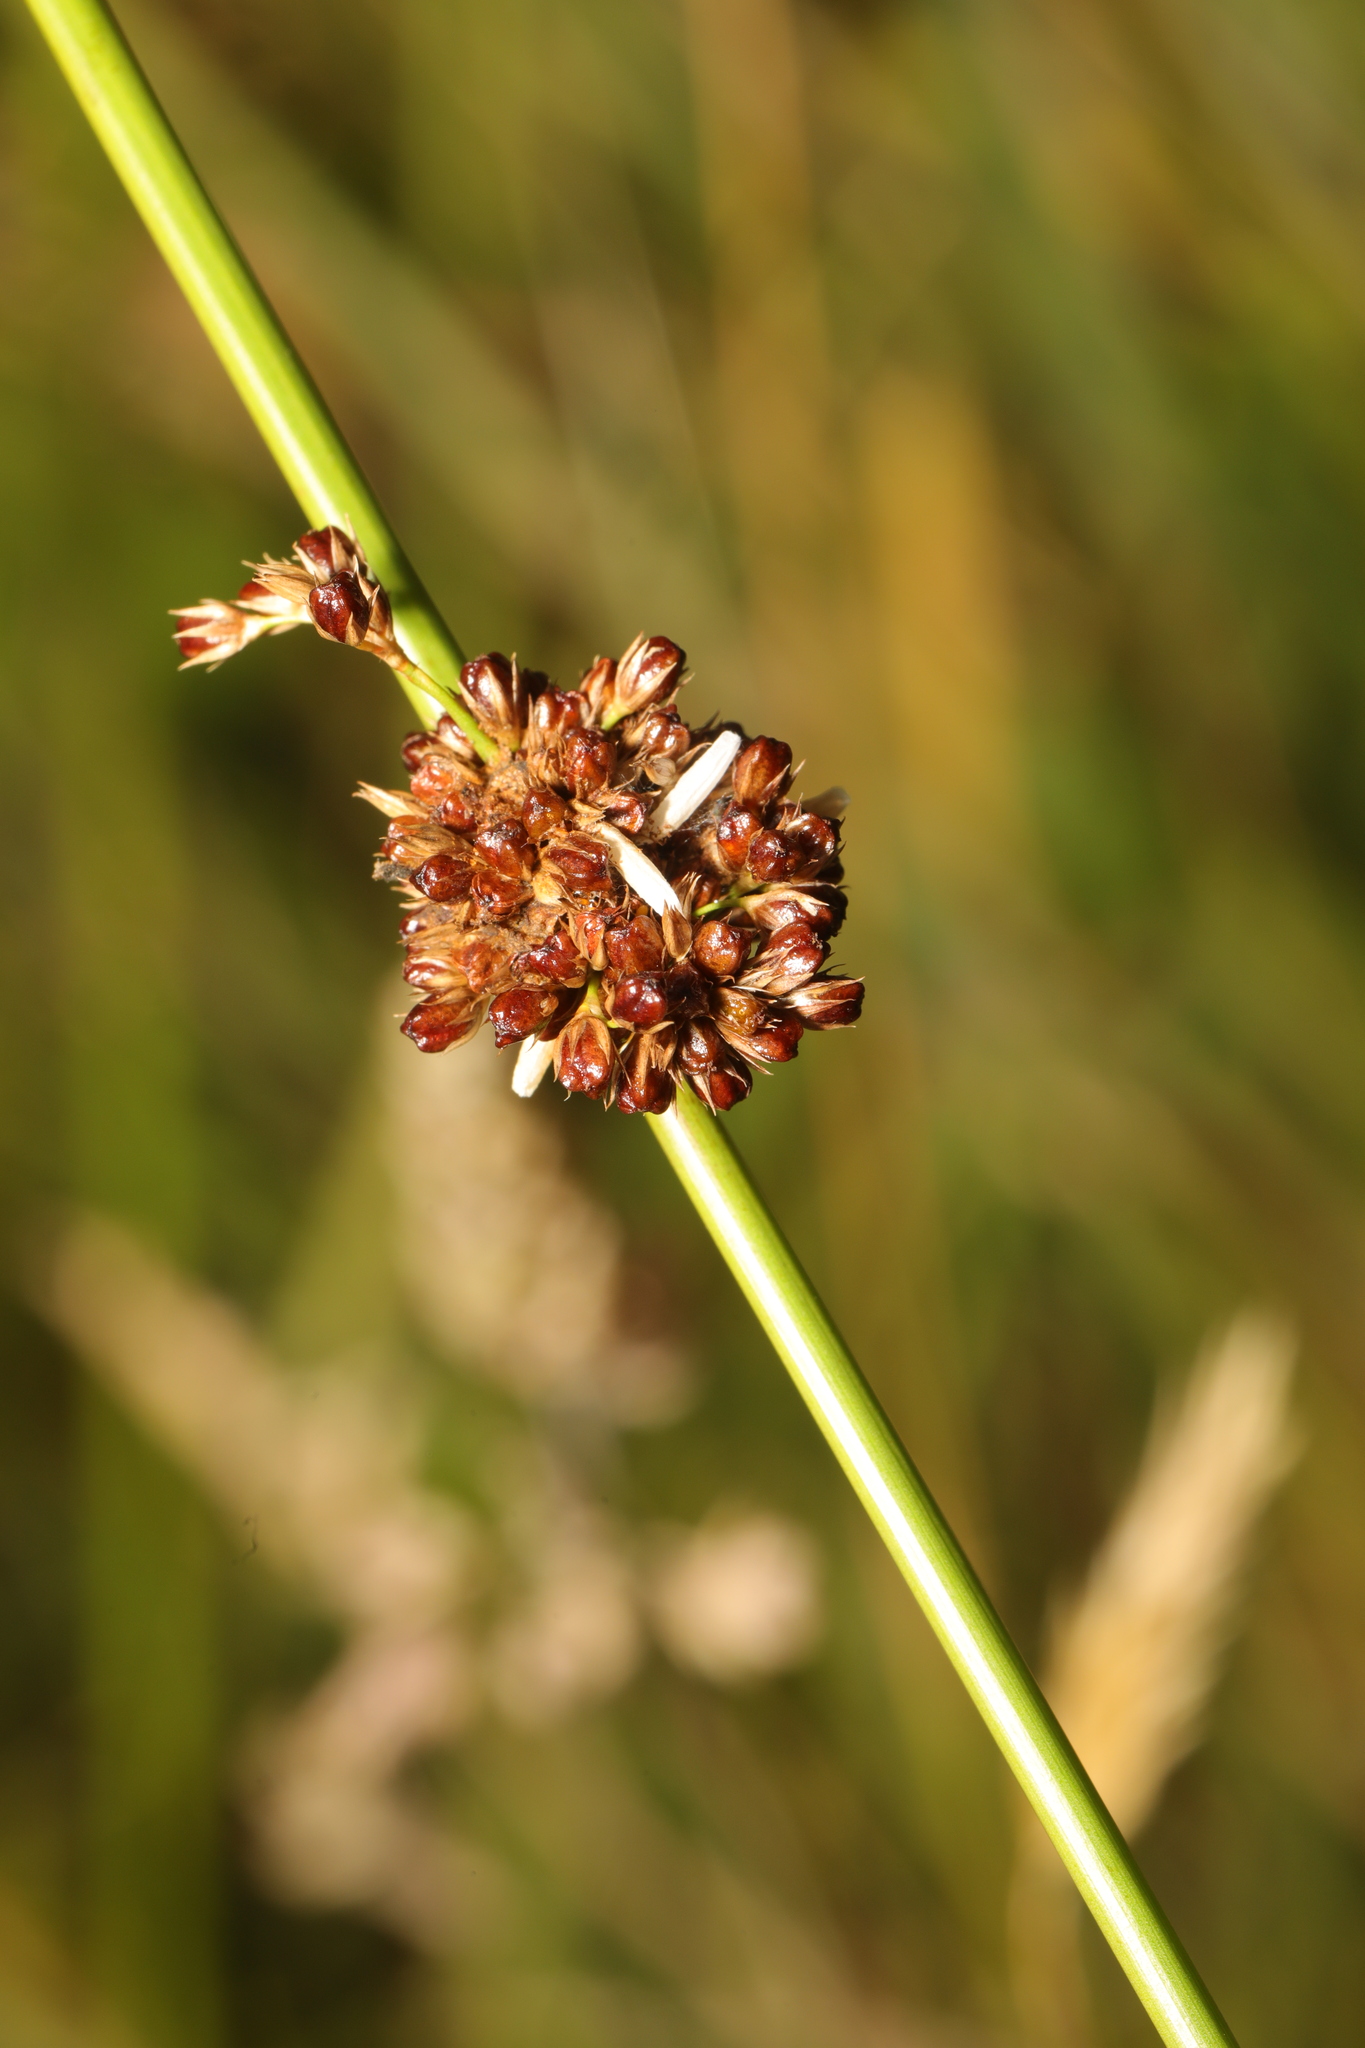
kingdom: Plantae
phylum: Tracheophyta
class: Liliopsida
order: Poales
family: Juncaceae
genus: Juncus
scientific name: Juncus conglomeratus
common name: Compact rush
